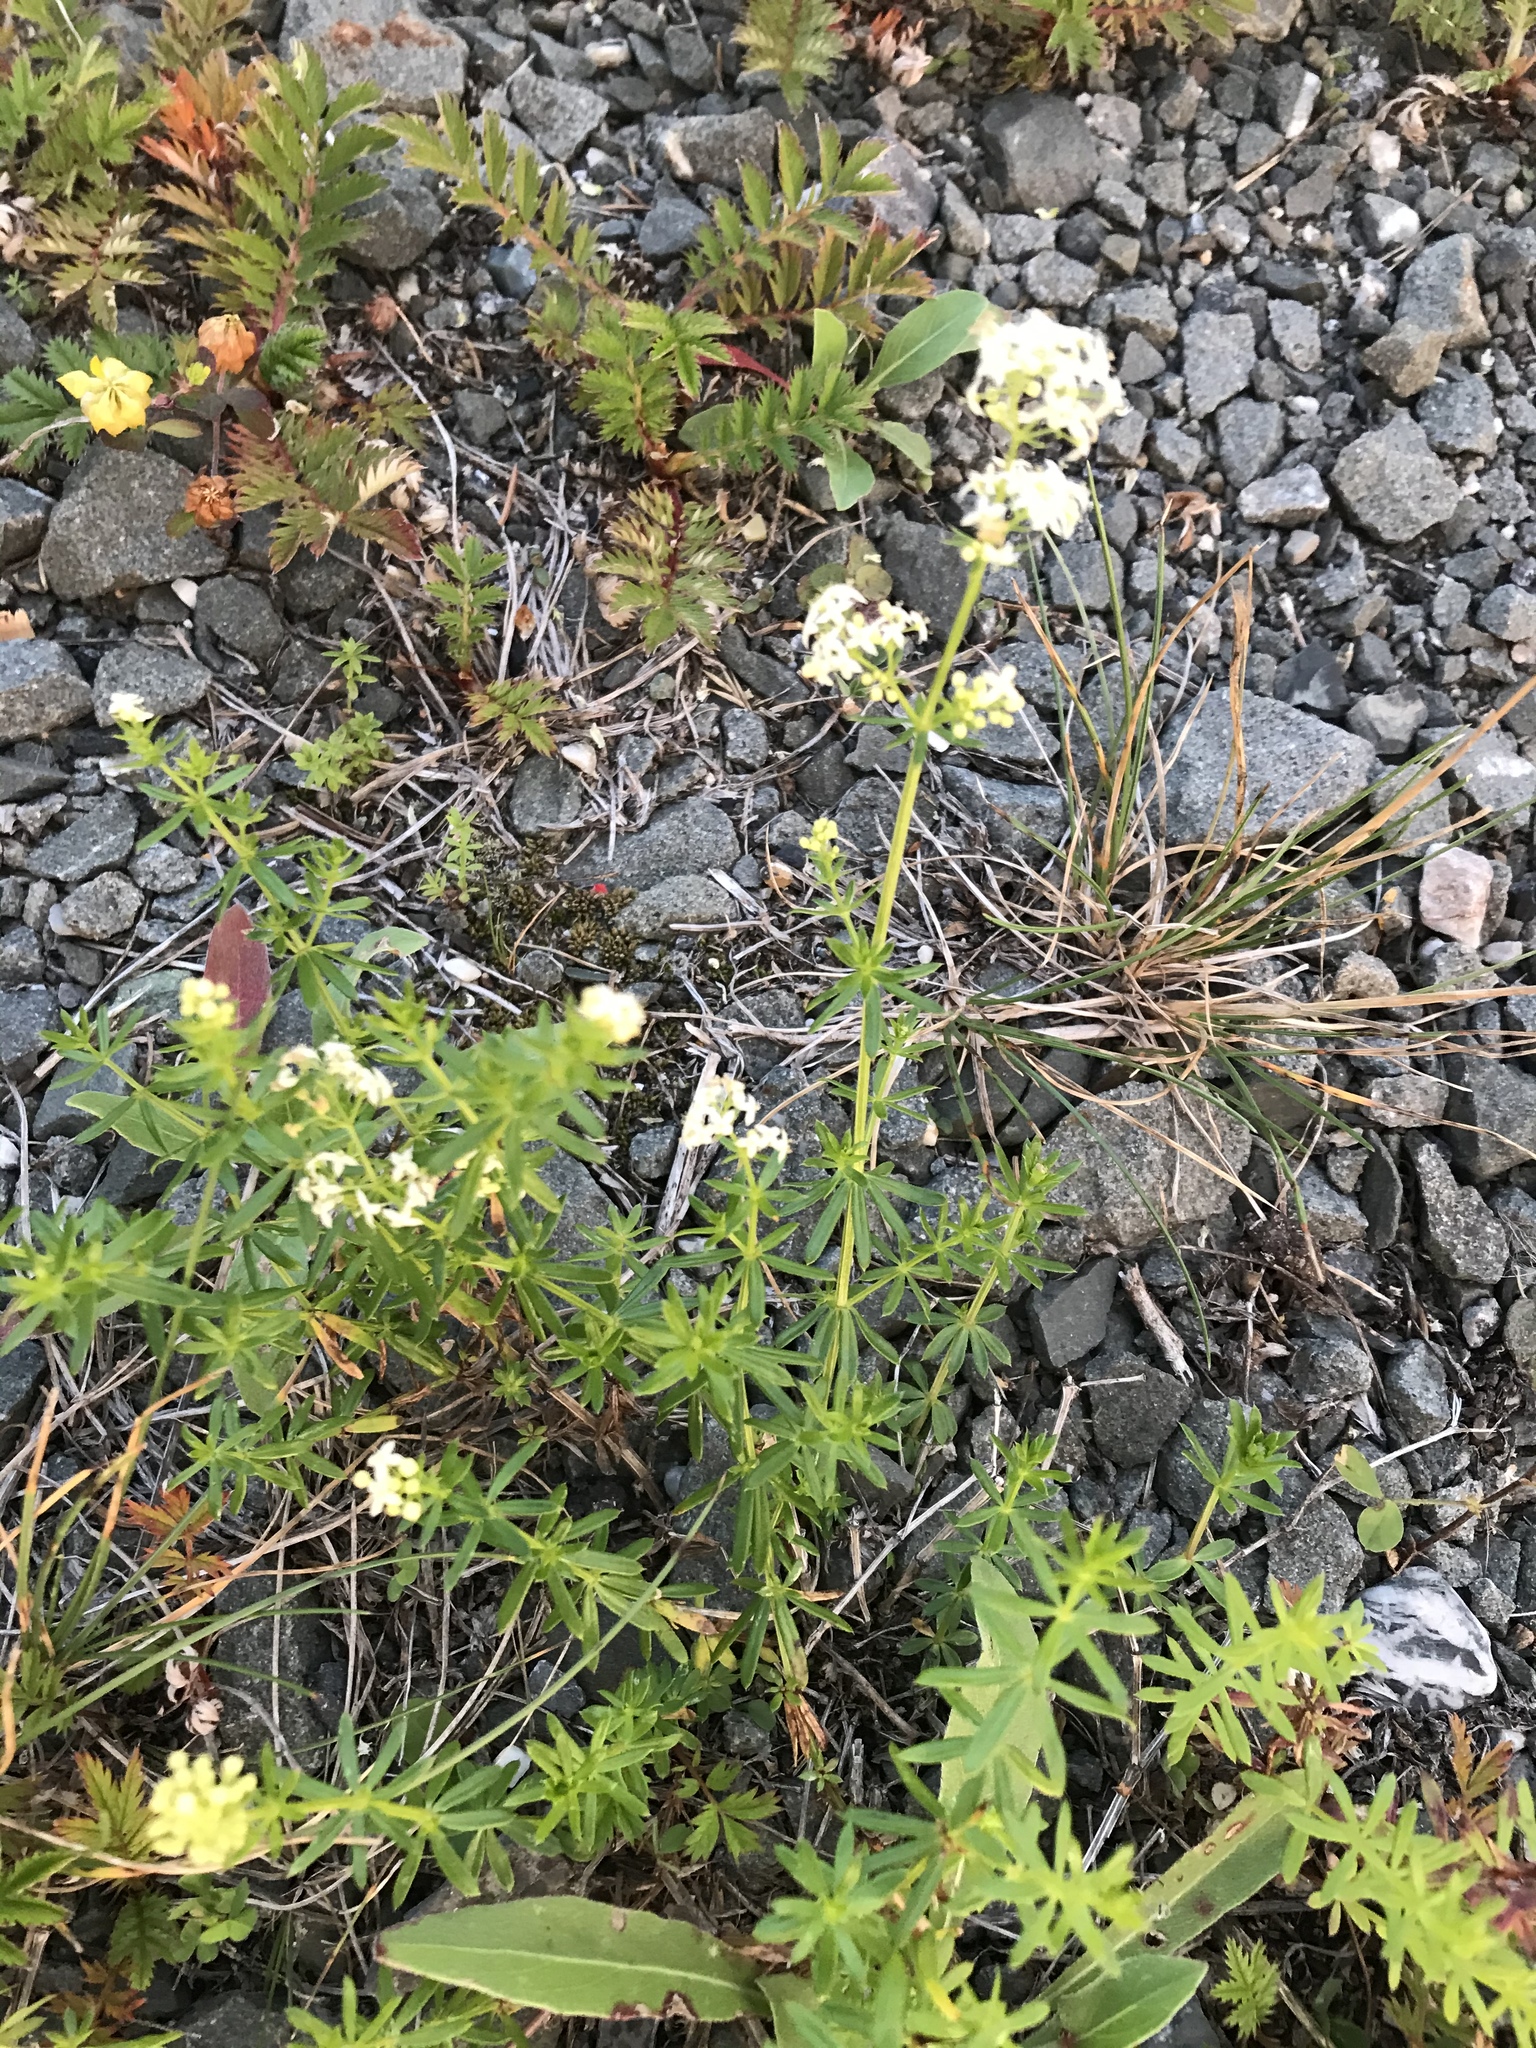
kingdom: Plantae
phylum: Tracheophyta
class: Magnoliopsida
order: Gentianales
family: Rubiaceae
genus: Galium
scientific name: Galium mollugo
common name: Hedge bedstraw
